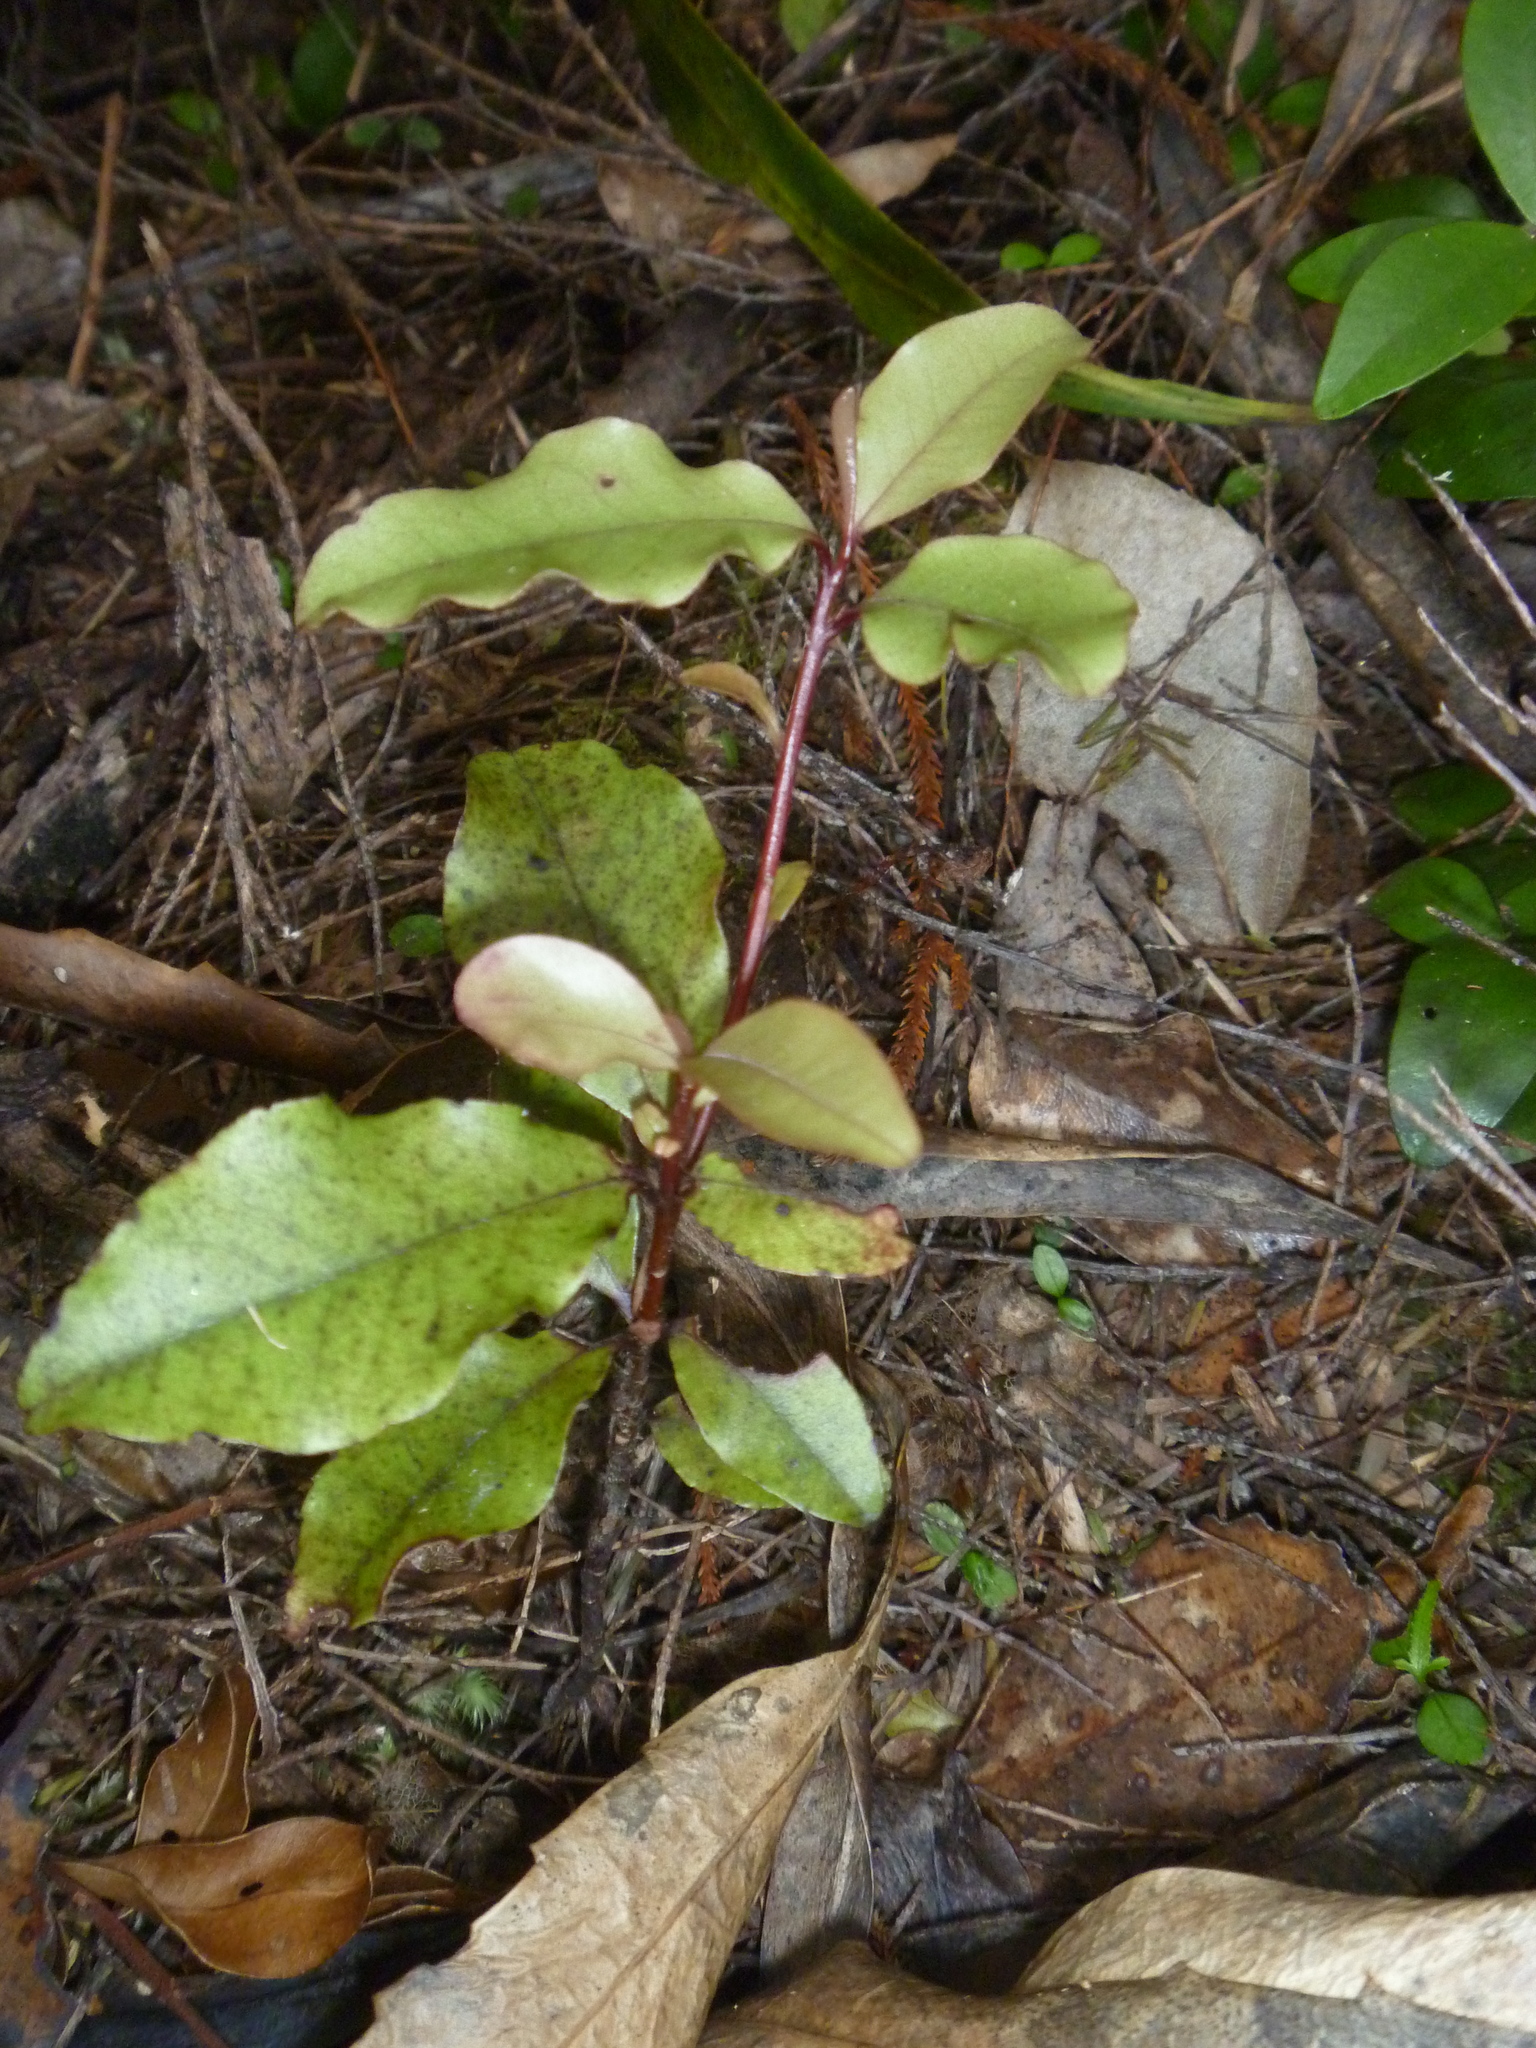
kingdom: Plantae
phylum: Tracheophyta
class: Magnoliopsida
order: Ericales
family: Primulaceae
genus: Myrsine
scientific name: Myrsine australis
